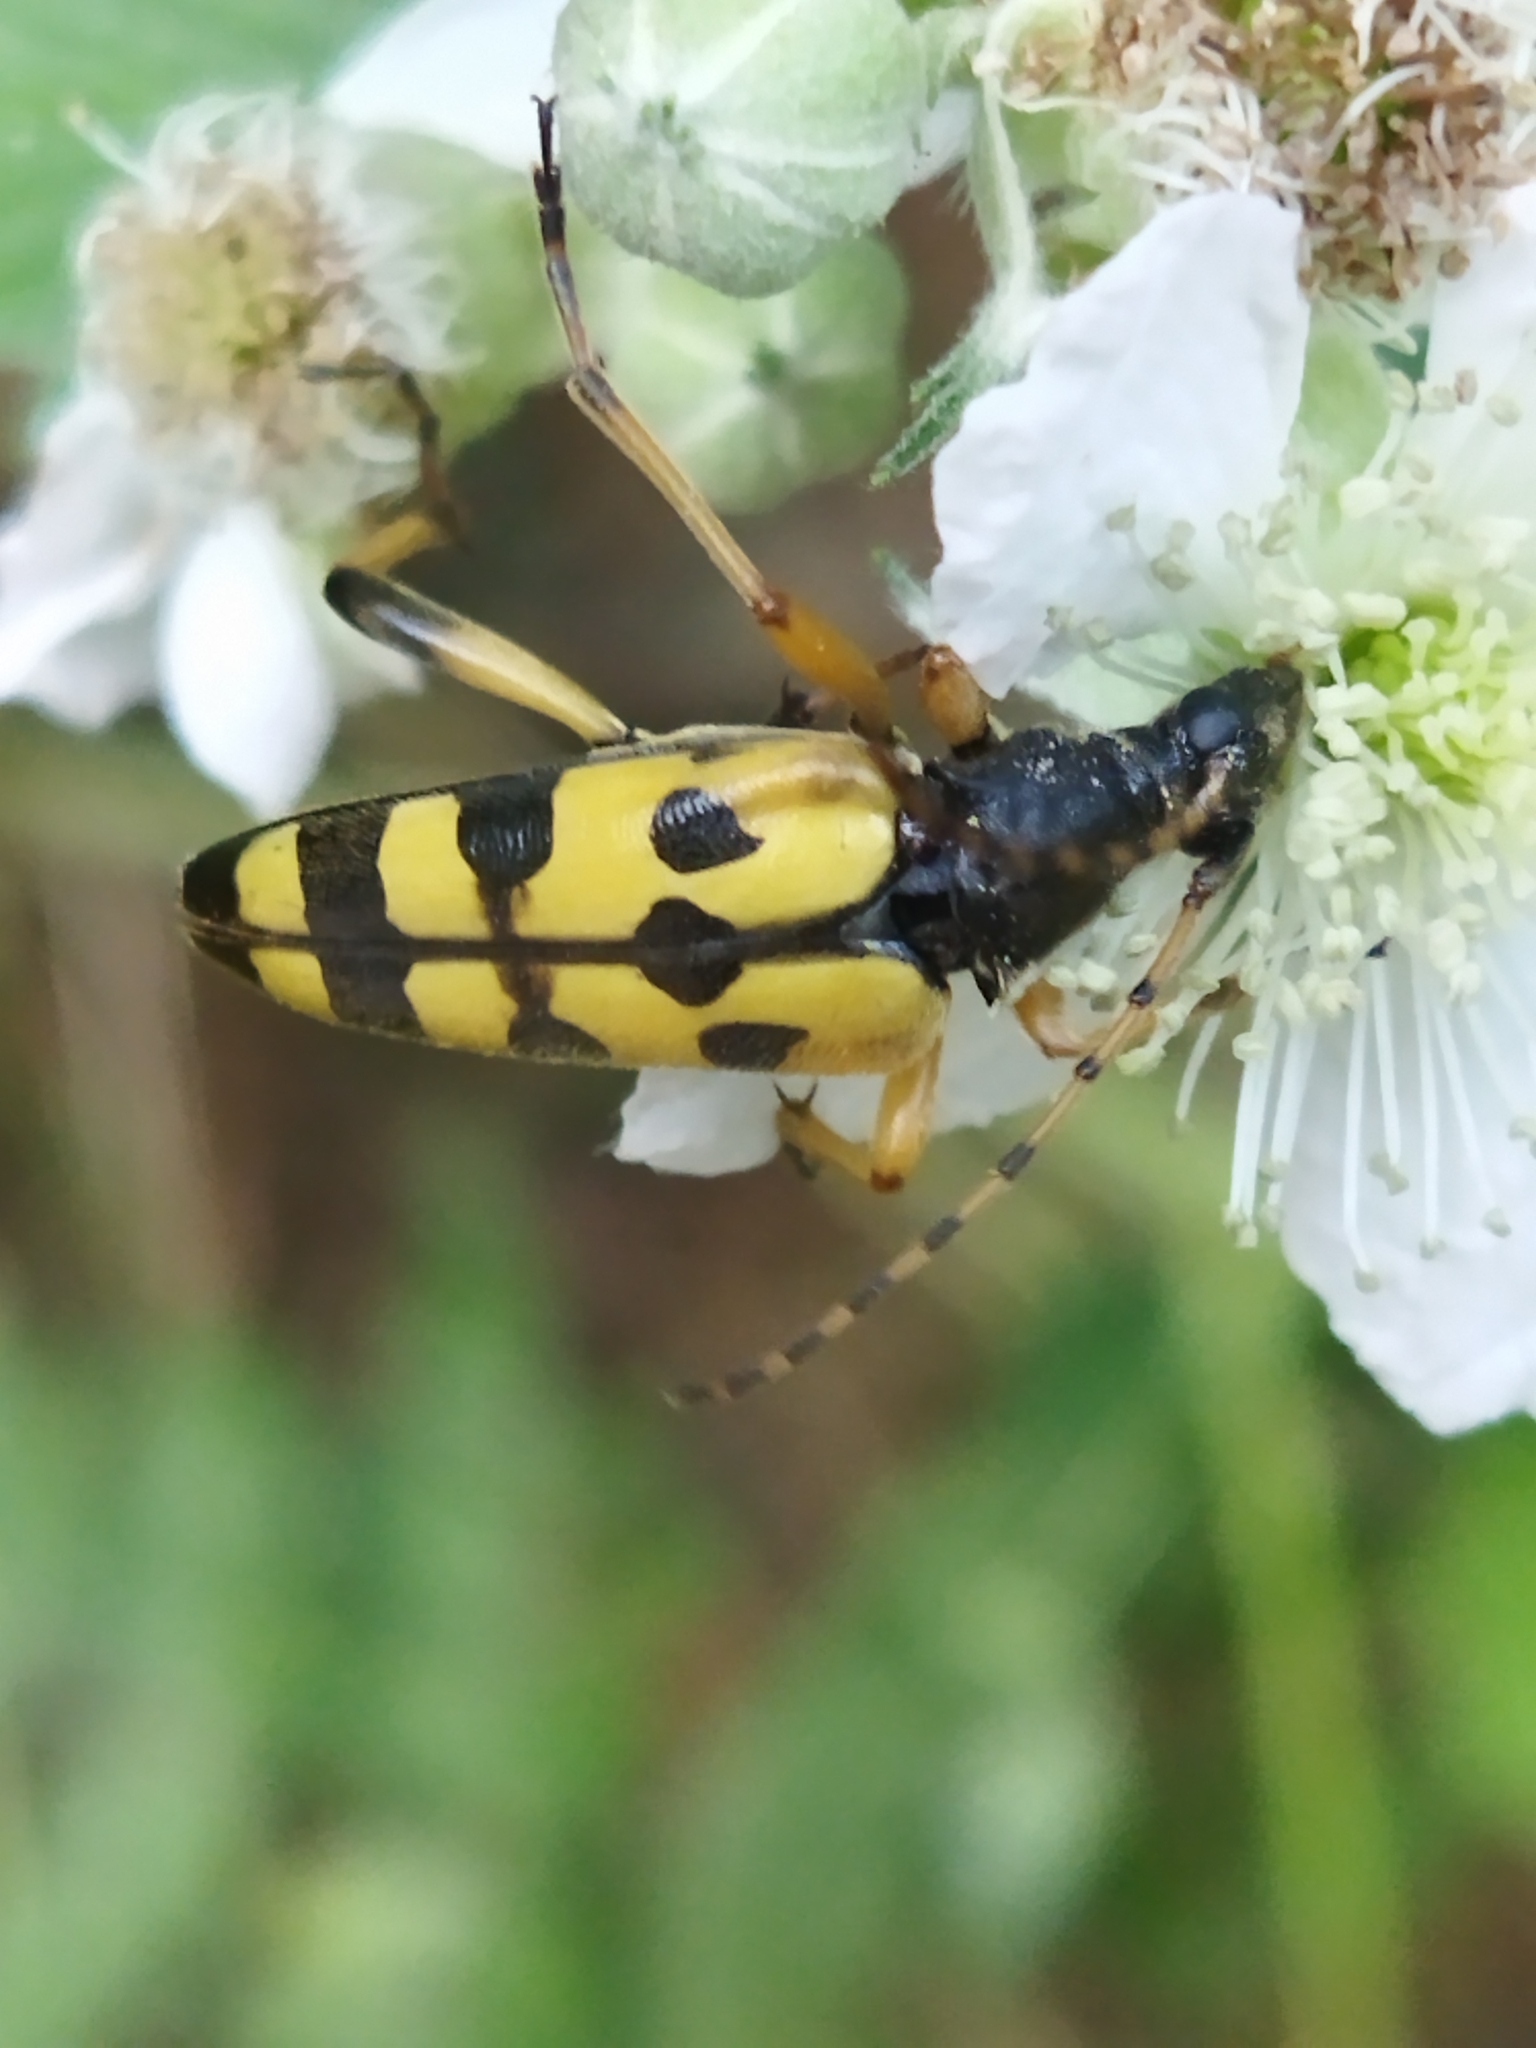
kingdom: Animalia
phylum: Arthropoda
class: Insecta
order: Coleoptera
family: Cerambycidae
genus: Rutpela
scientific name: Rutpela maculata
